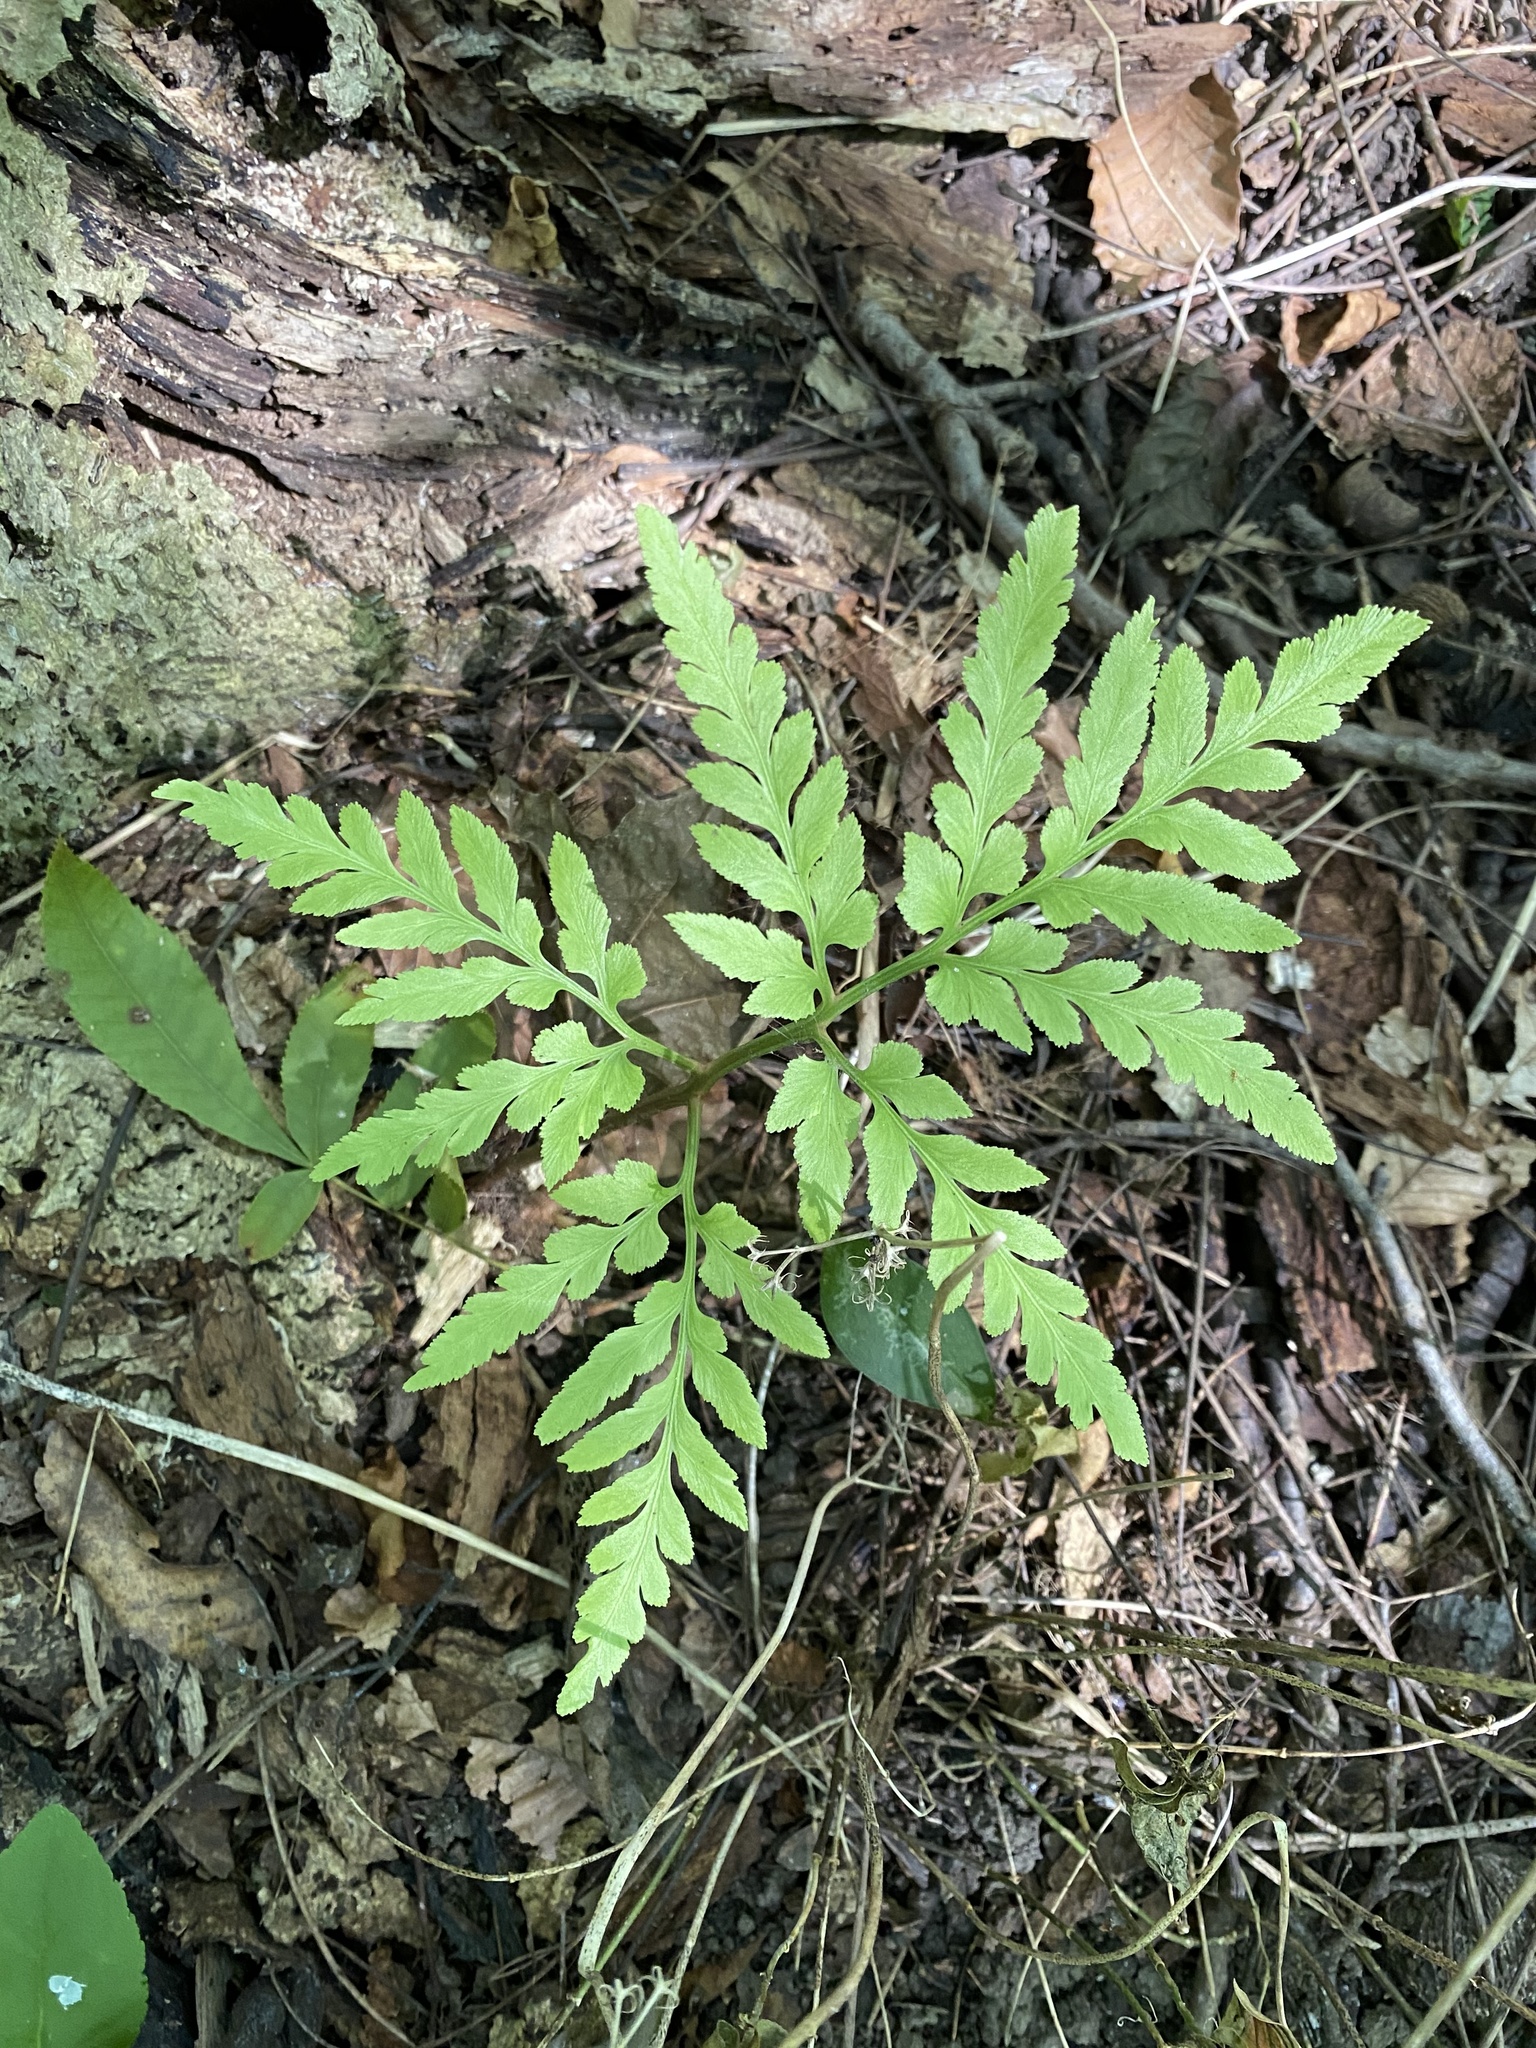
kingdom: Plantae
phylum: Tracheophyta
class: Polypodiopsida
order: Ophioglossales
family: Ophioglossaceae
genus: Sceptridium
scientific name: Sceptridium dissectum
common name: Cut-leaved grapefern
